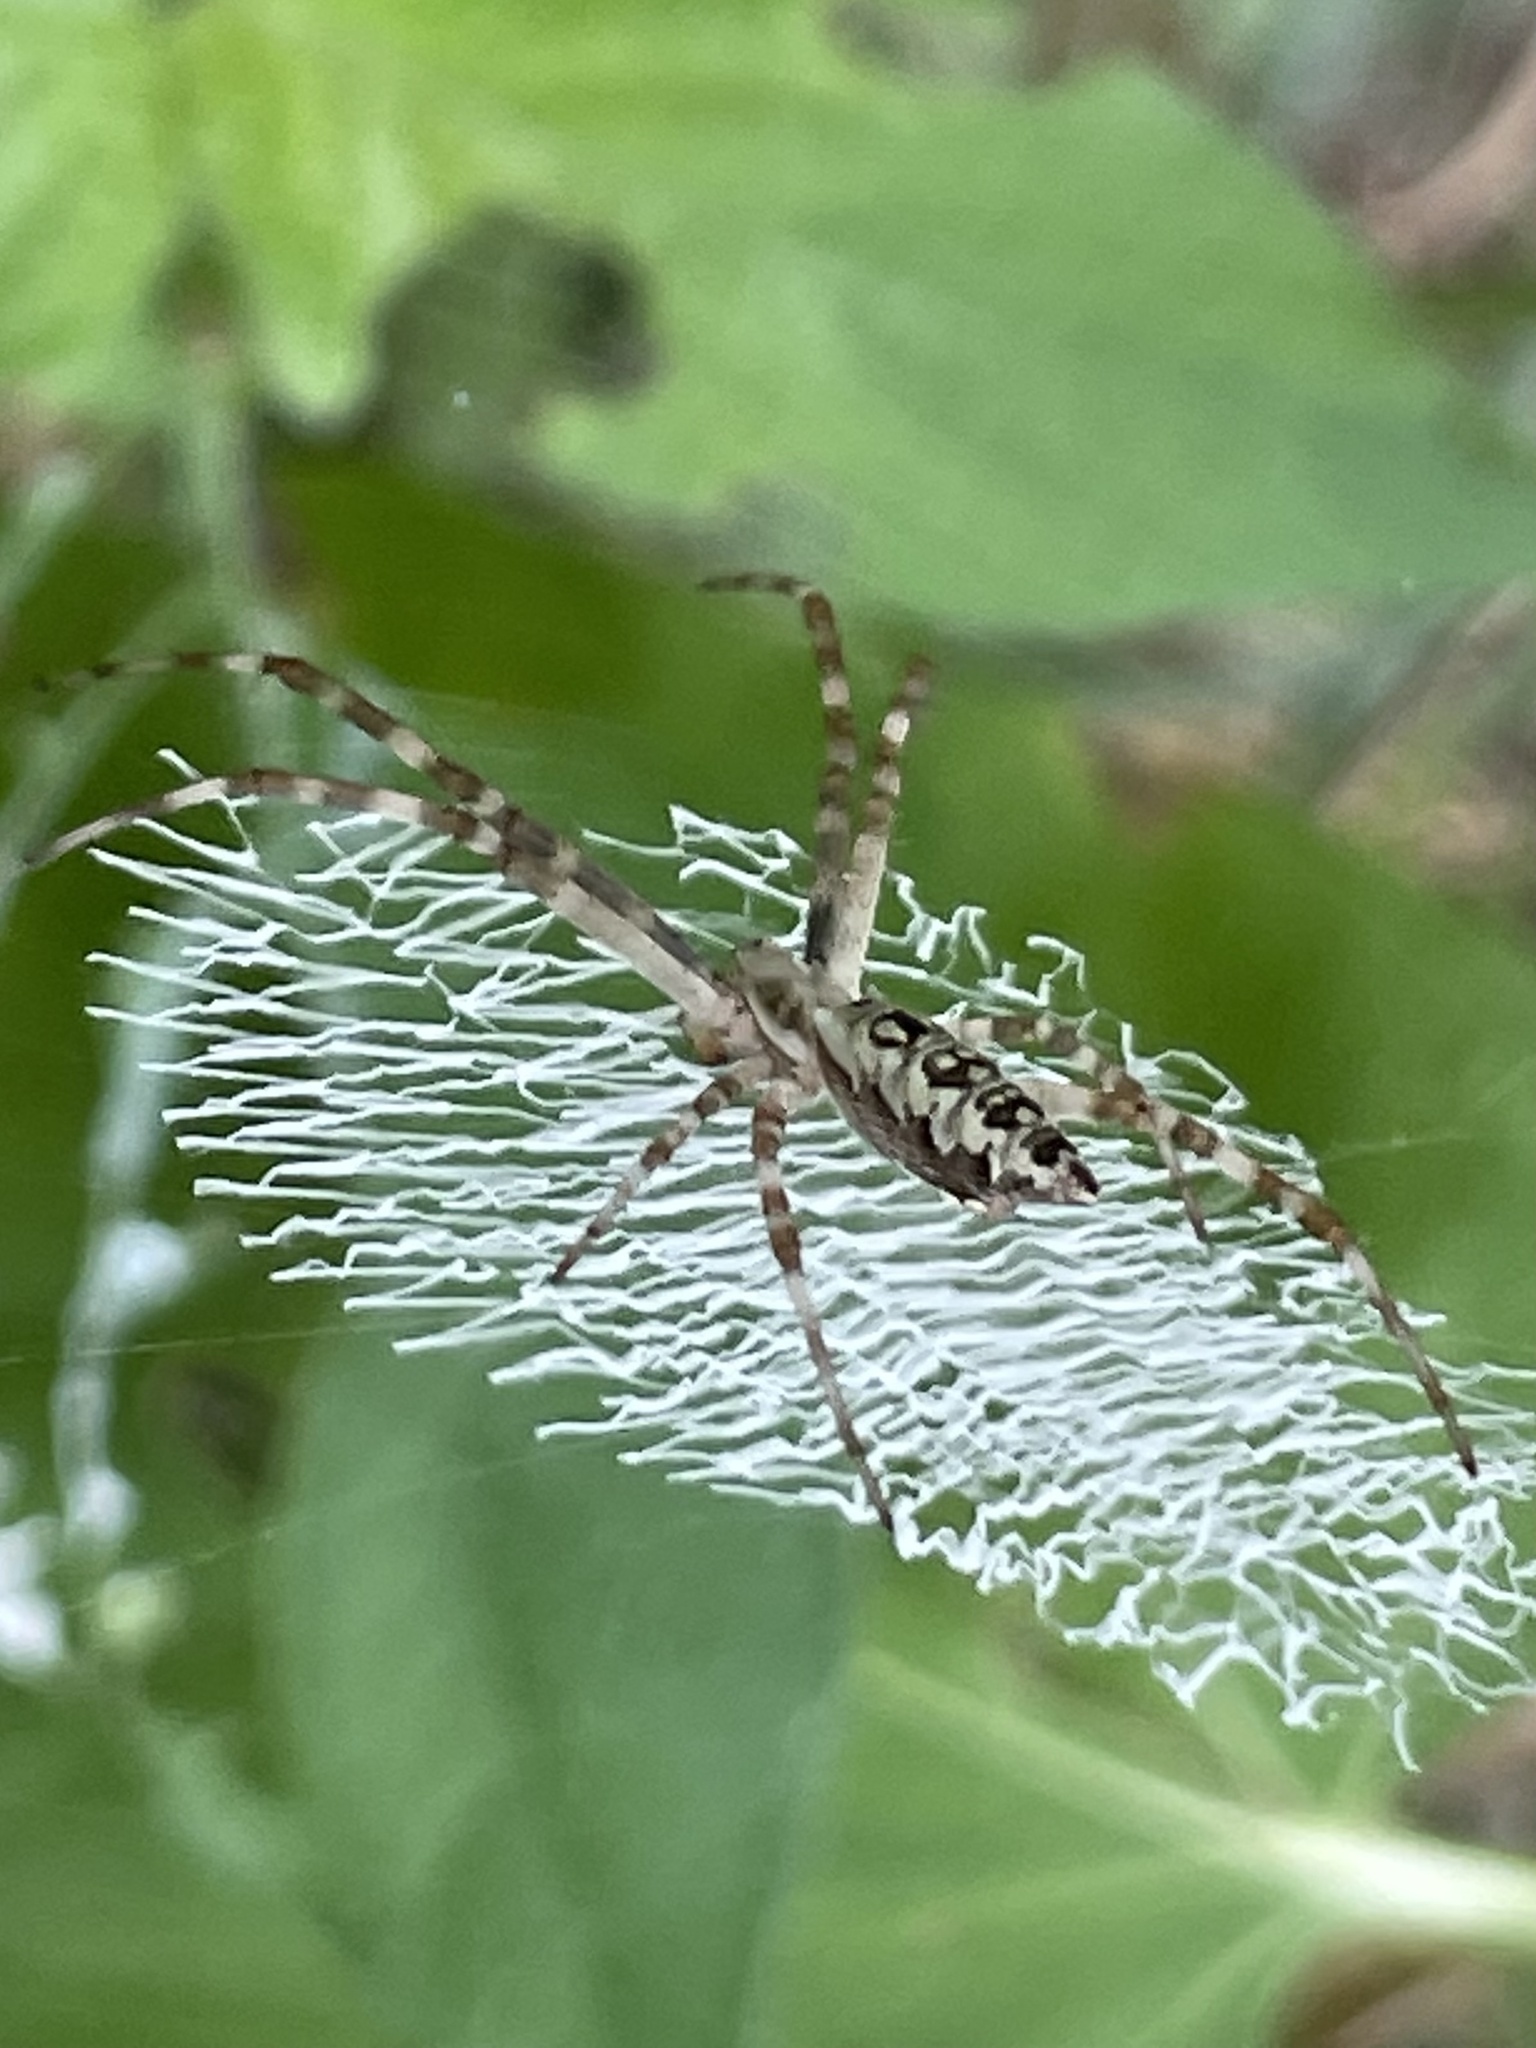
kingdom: Animalia
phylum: Arthropoda
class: Arachnida
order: Araneae
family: Araneidae
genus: Argiope
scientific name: Argiope aurantia
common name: Orb weavers
